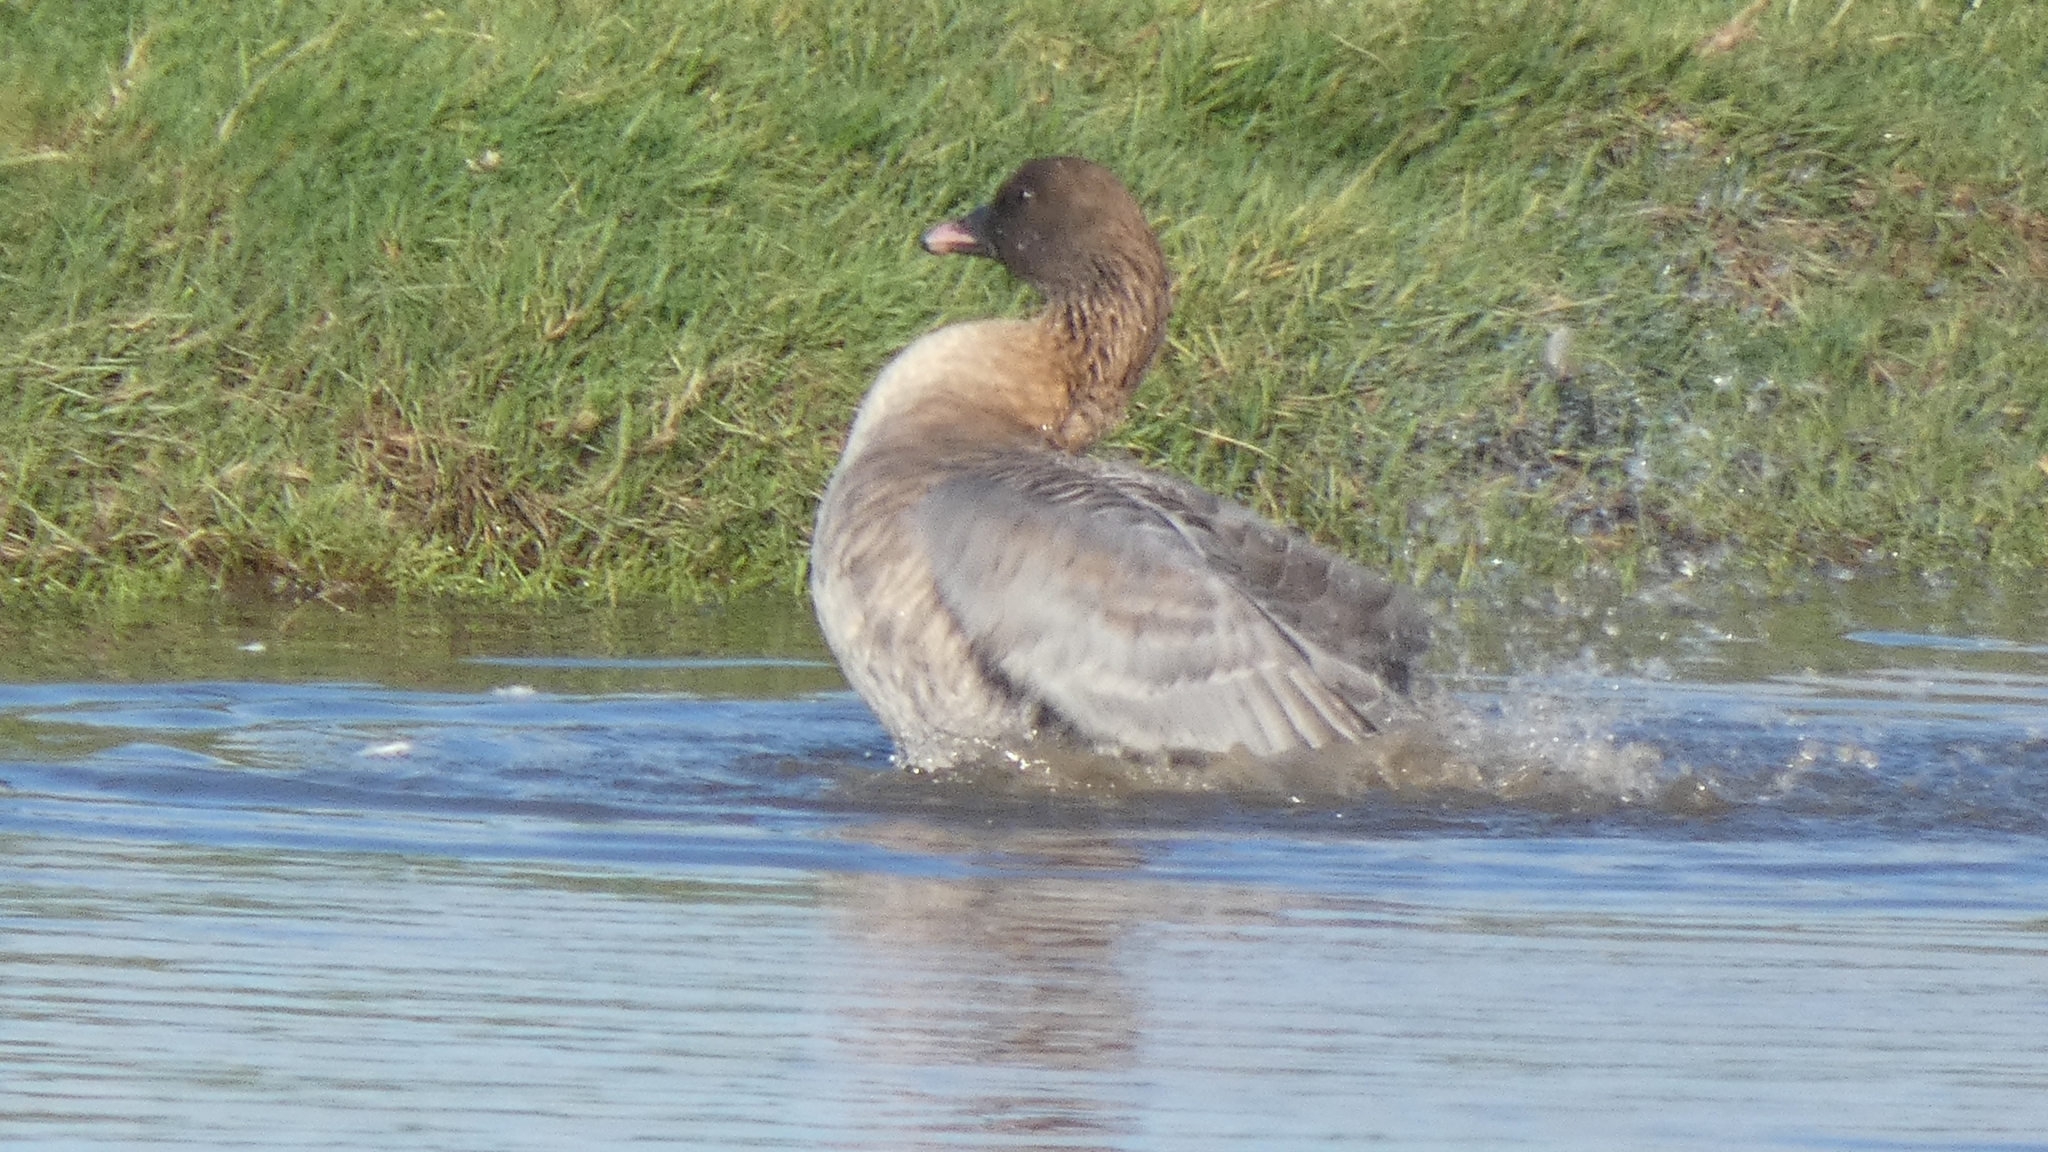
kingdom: Animalia
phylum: Chordata
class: Aves
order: Anseriformes
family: Anatidae
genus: Anser
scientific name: Anser brachyrhynchus
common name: Pink-footed goose
